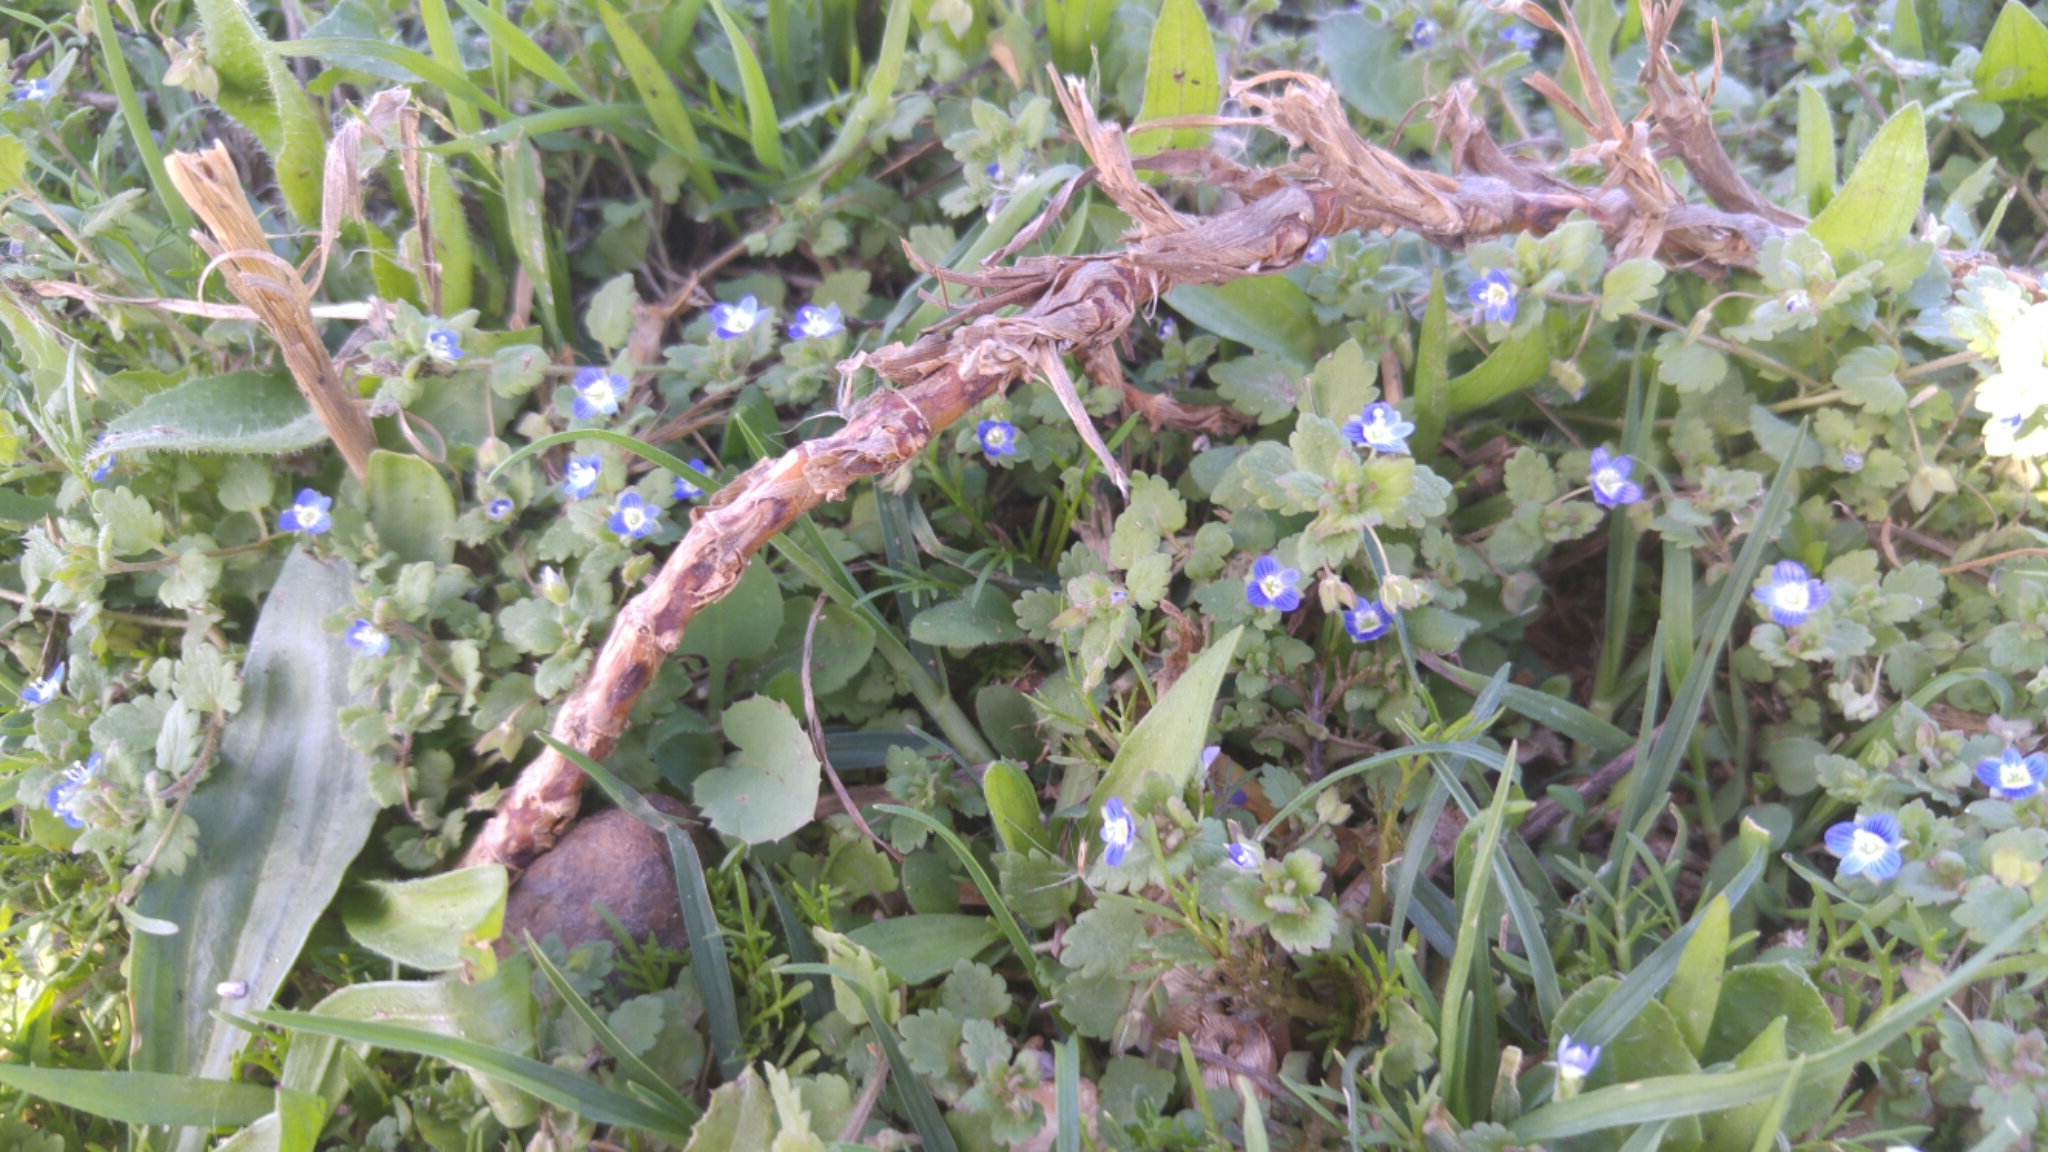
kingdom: Plantae
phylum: Tracheophyta
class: Magnoliopsida
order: Lamiales
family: Plantaginaceae
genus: Veronica
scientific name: Veronica polita
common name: Grey field-speedwell
